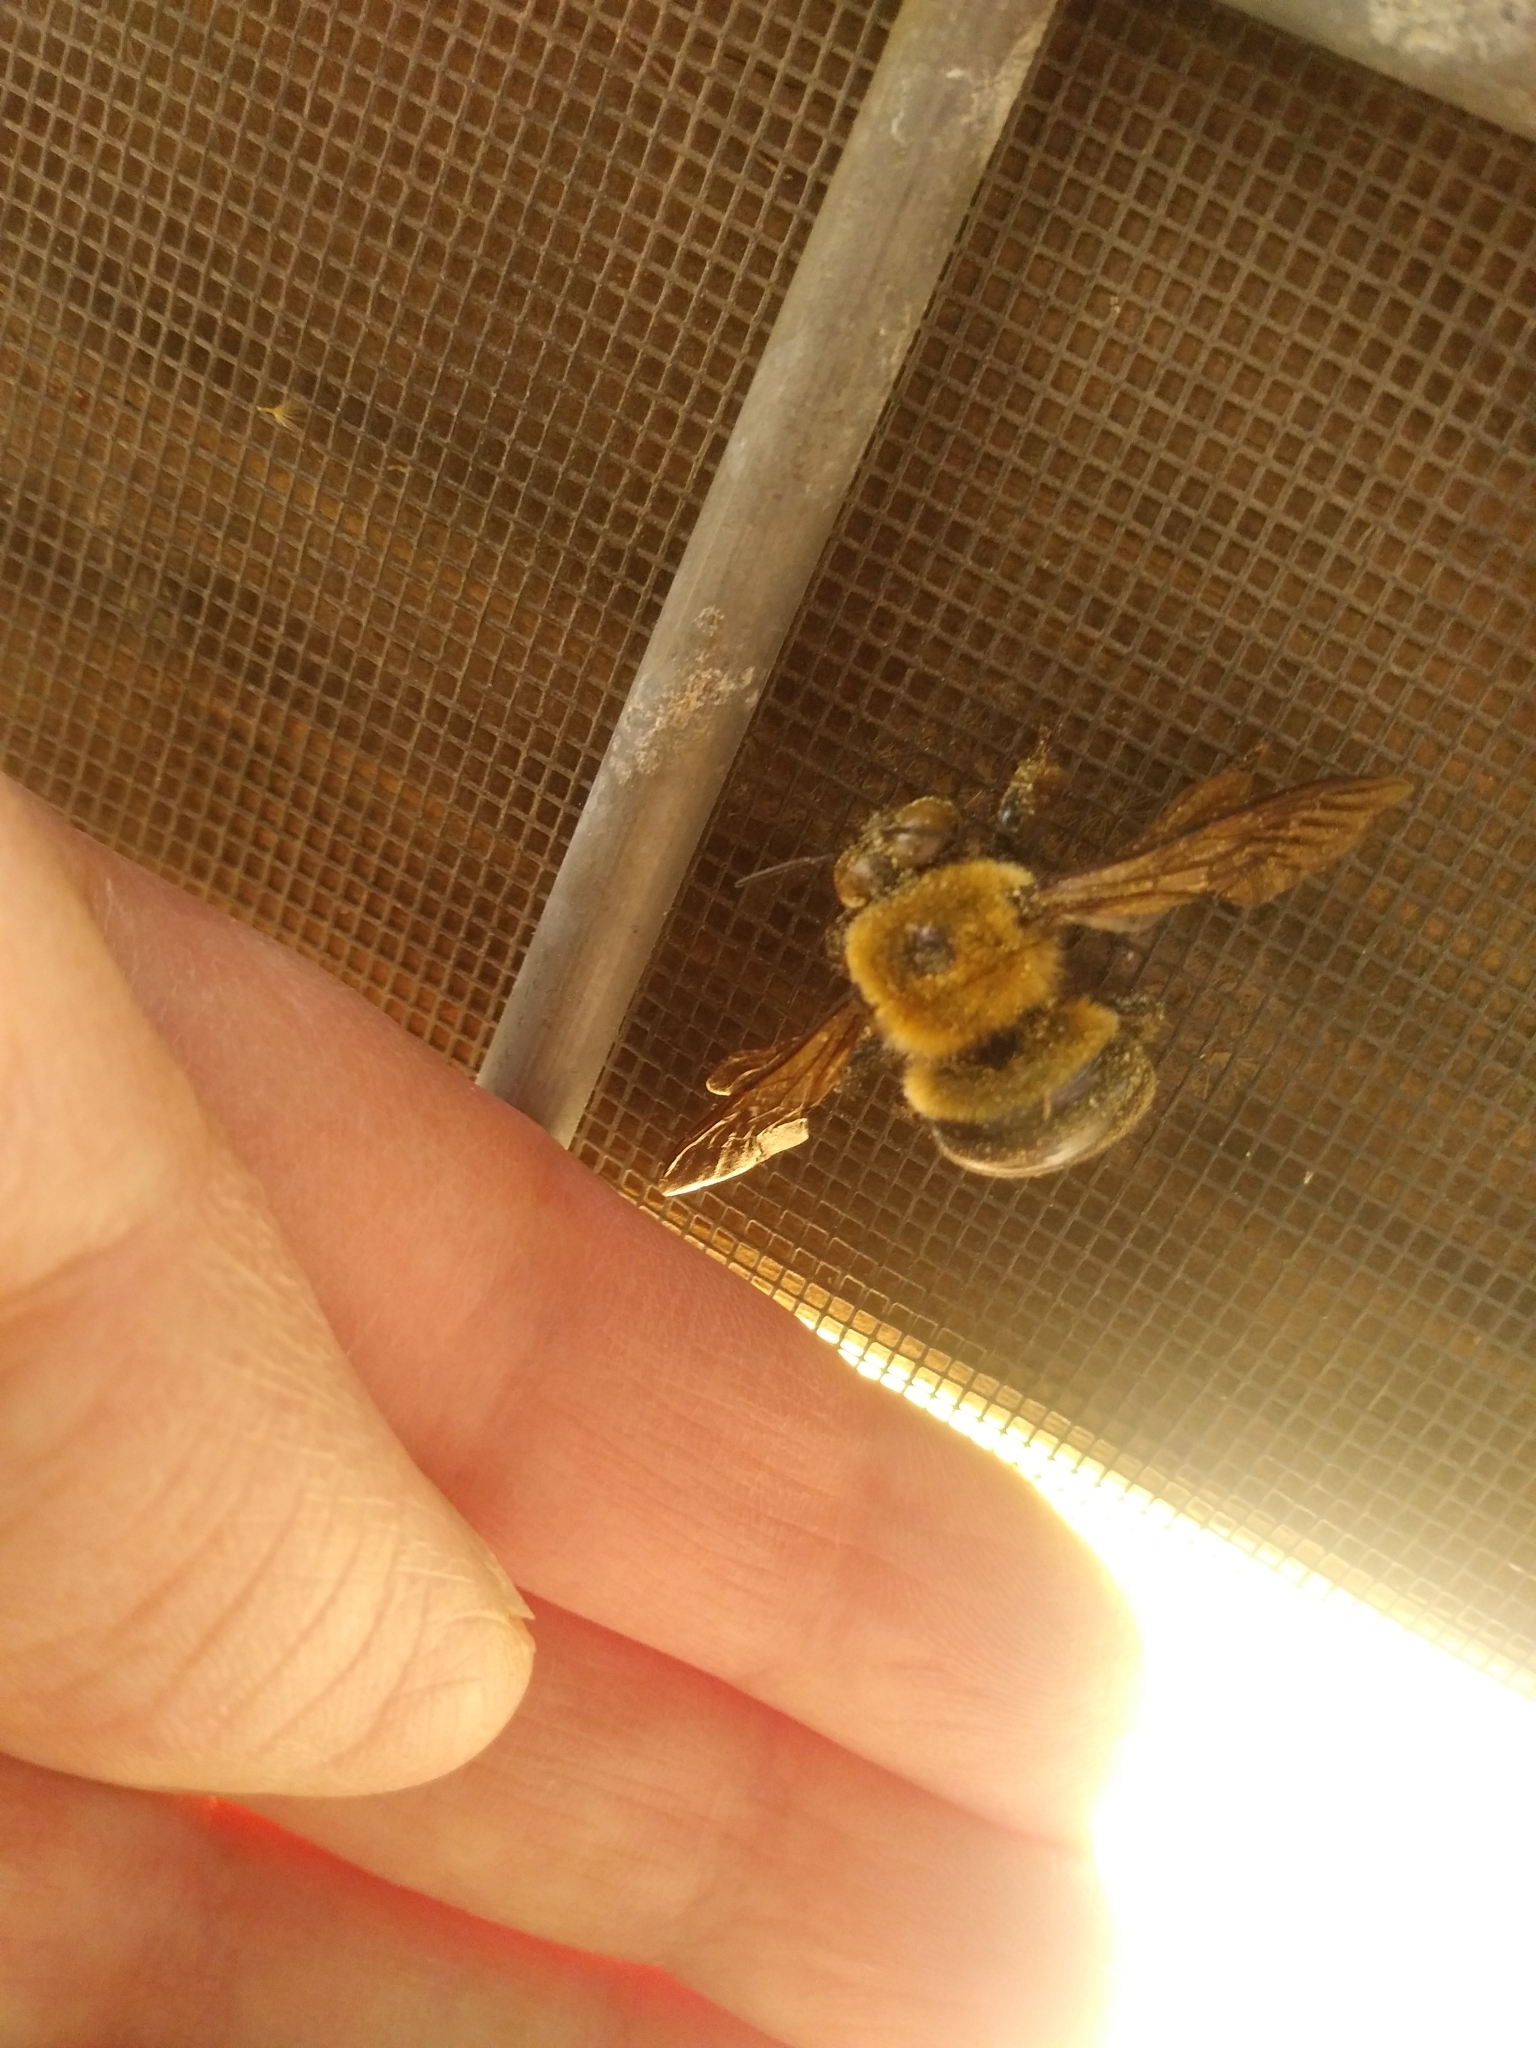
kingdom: Animalia
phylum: Arthropoda
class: Insecta
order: Hymenoptera
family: Apidae
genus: Xylocopa
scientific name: Xylocopa virginica
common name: Carpenter bee
